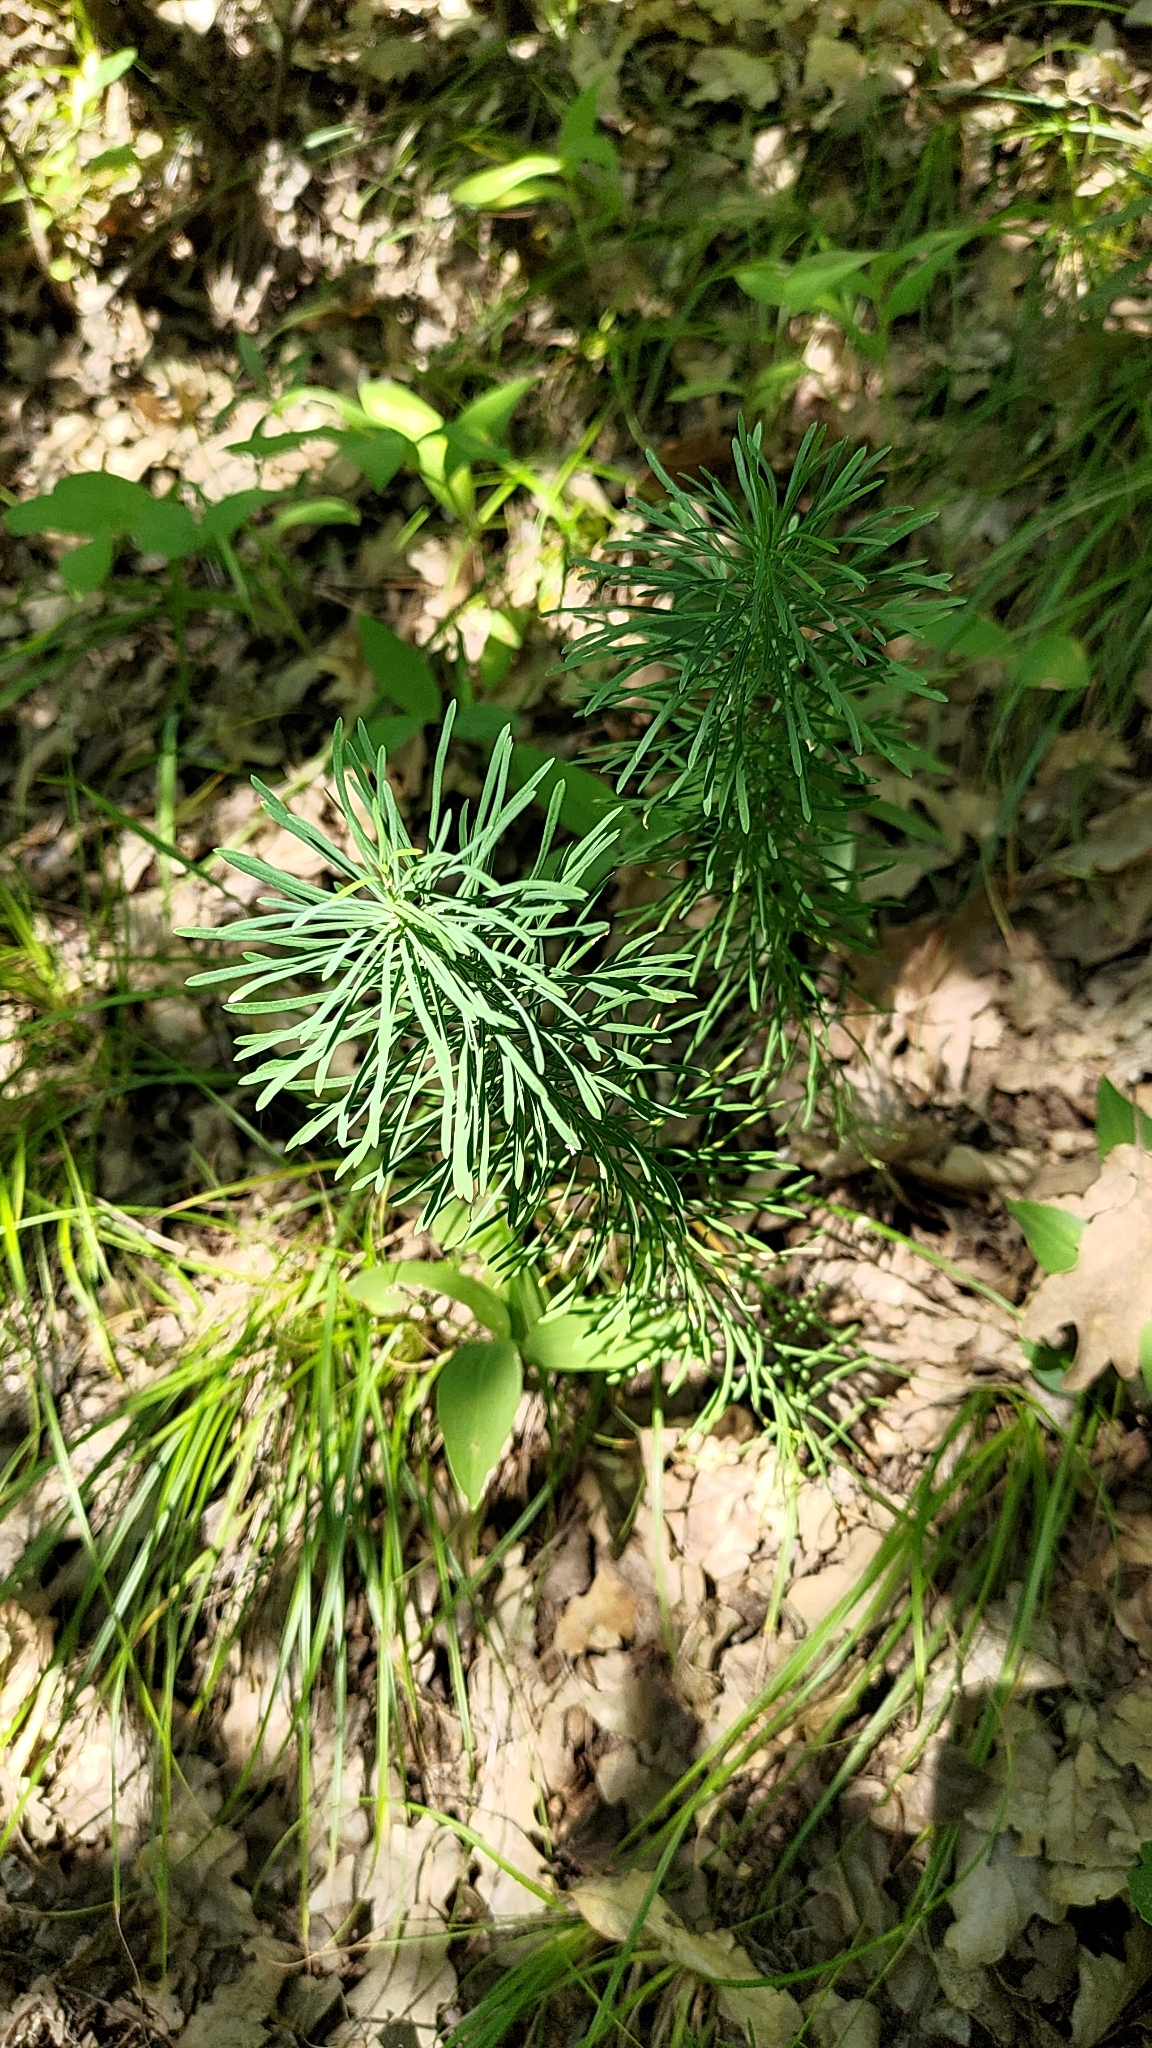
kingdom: Plantae
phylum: Tracheophyta
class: Magnoliopsida
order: Malpighiales
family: Euphorbiaceae
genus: Euphorbia
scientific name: Euphorbia cyparissias
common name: Cypress spurge
